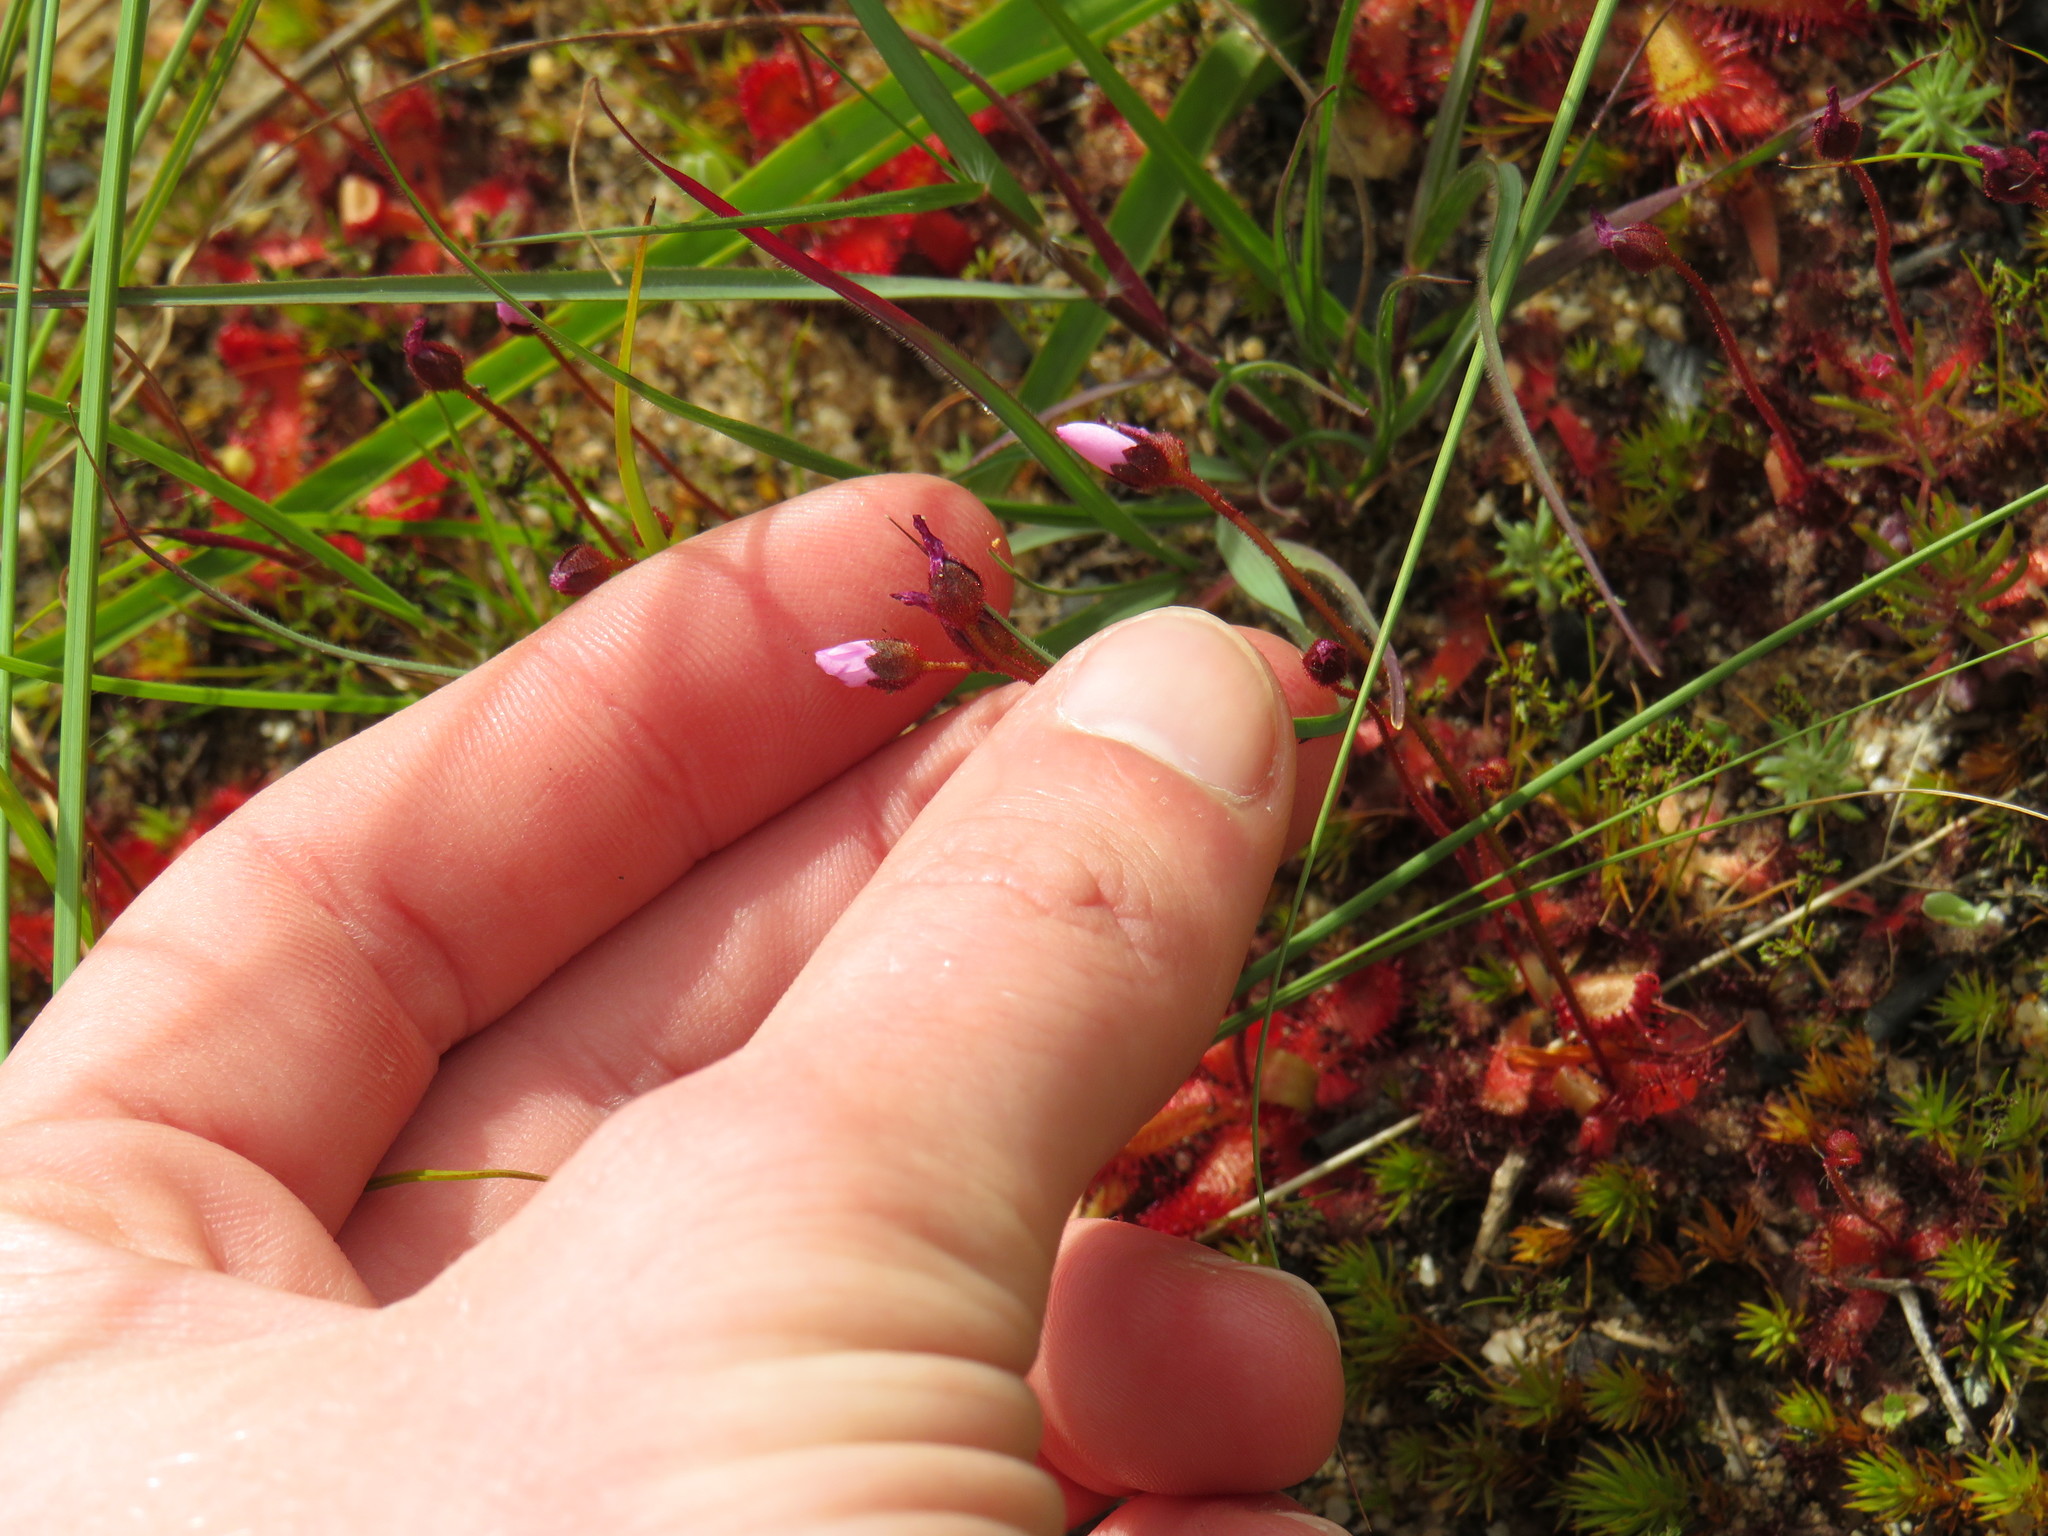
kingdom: Plantae
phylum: Tracheophyta
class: Magnoliopsida
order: Caryophyllales
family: Droseraceae
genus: Drosera
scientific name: Drosera trinervia
